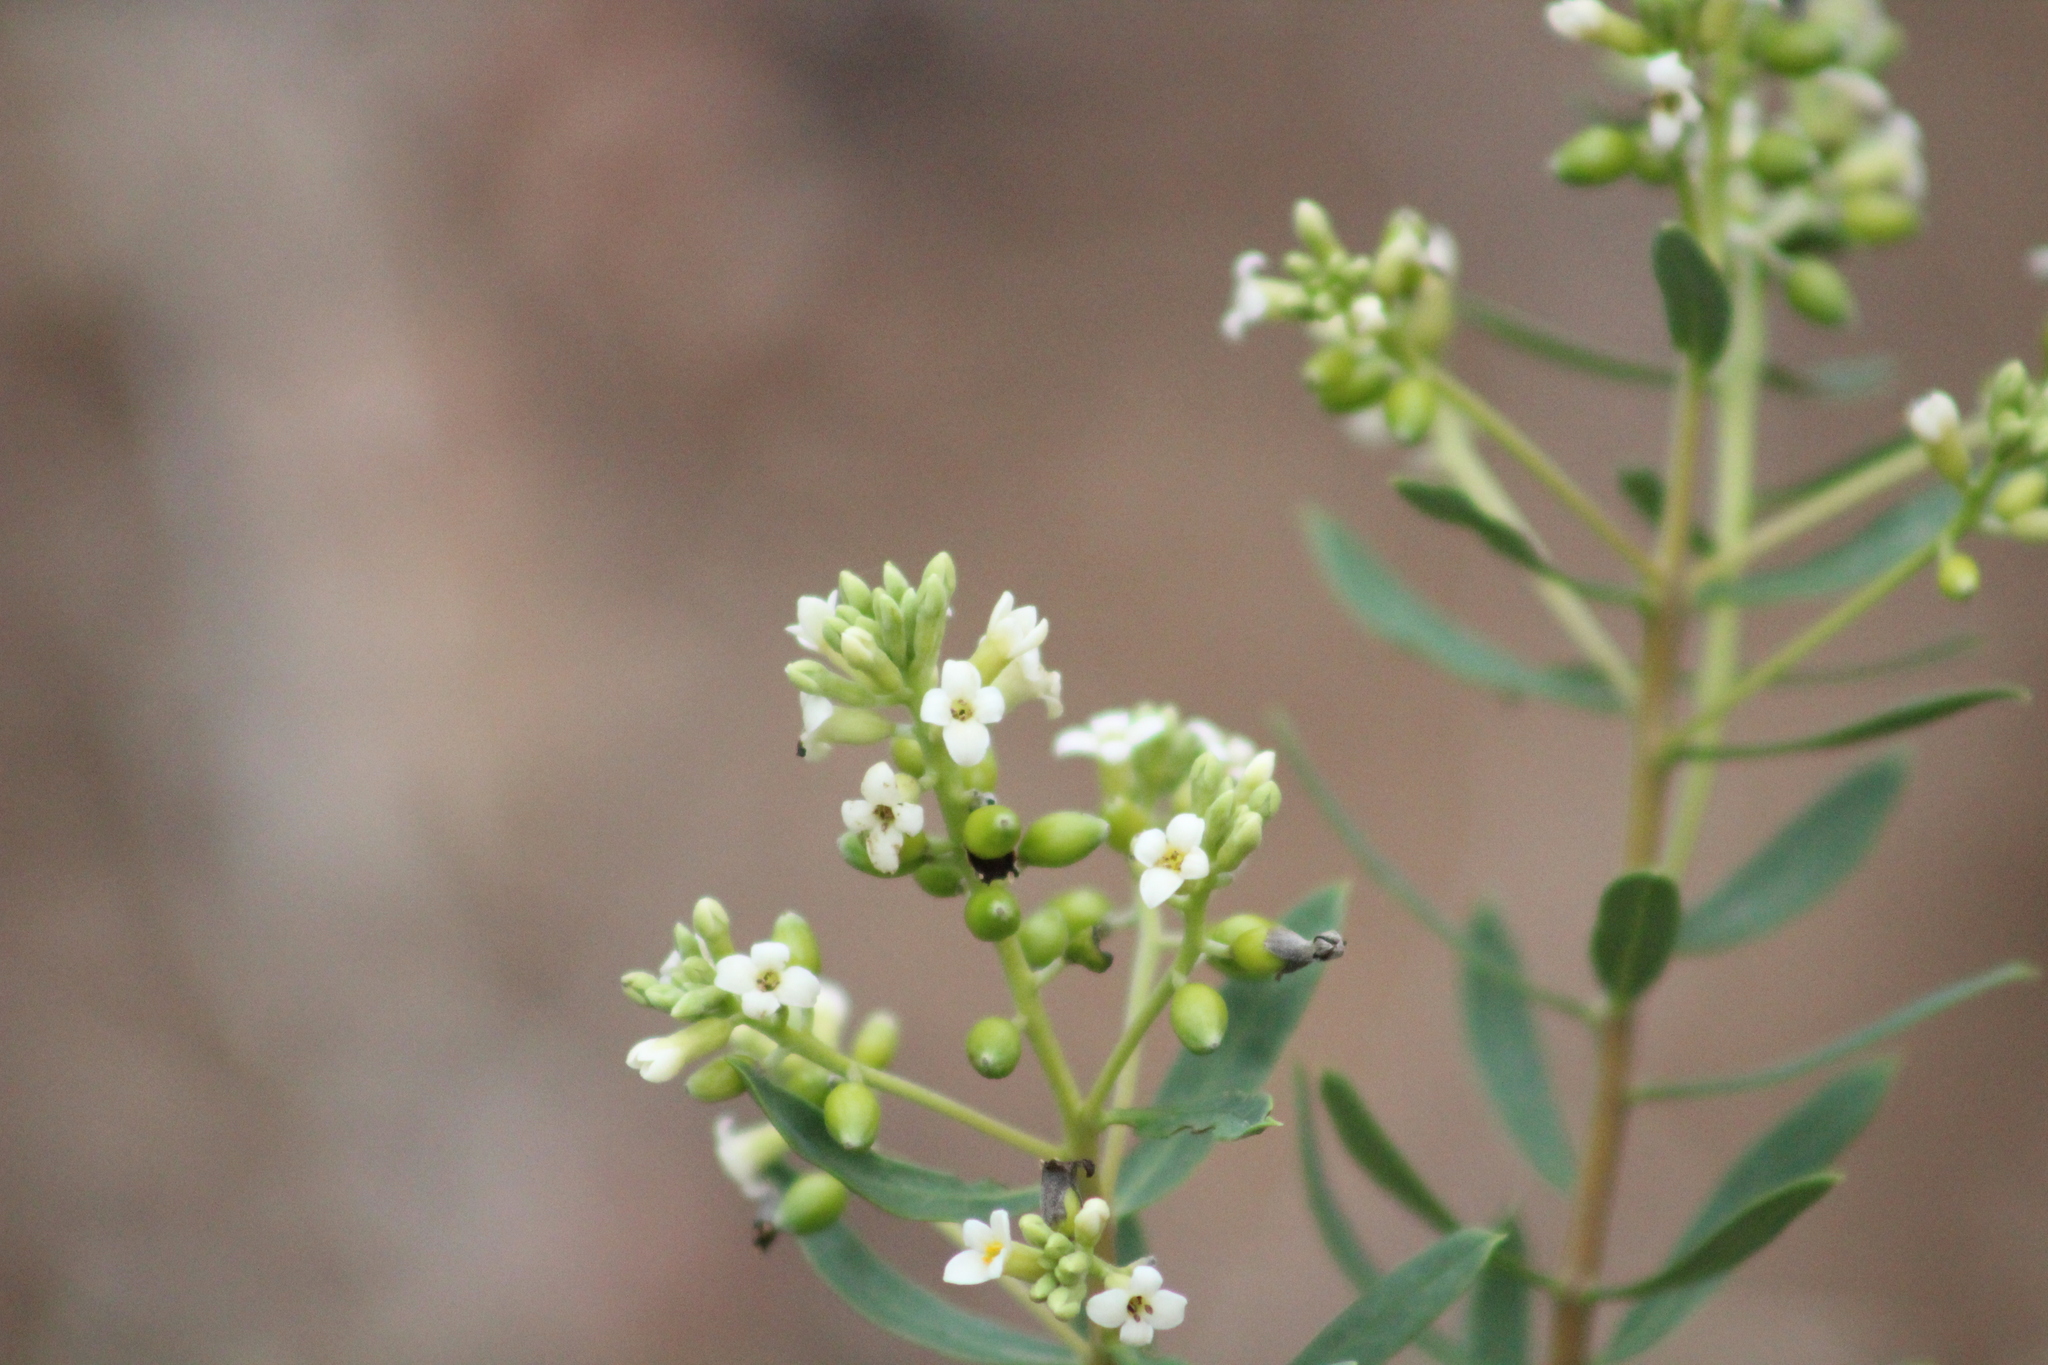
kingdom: Plantae
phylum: Tracheophyta
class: Magnoliopsida
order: Malvales
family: Thymelaeaceae
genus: Daphne
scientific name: Daphne gnidium
